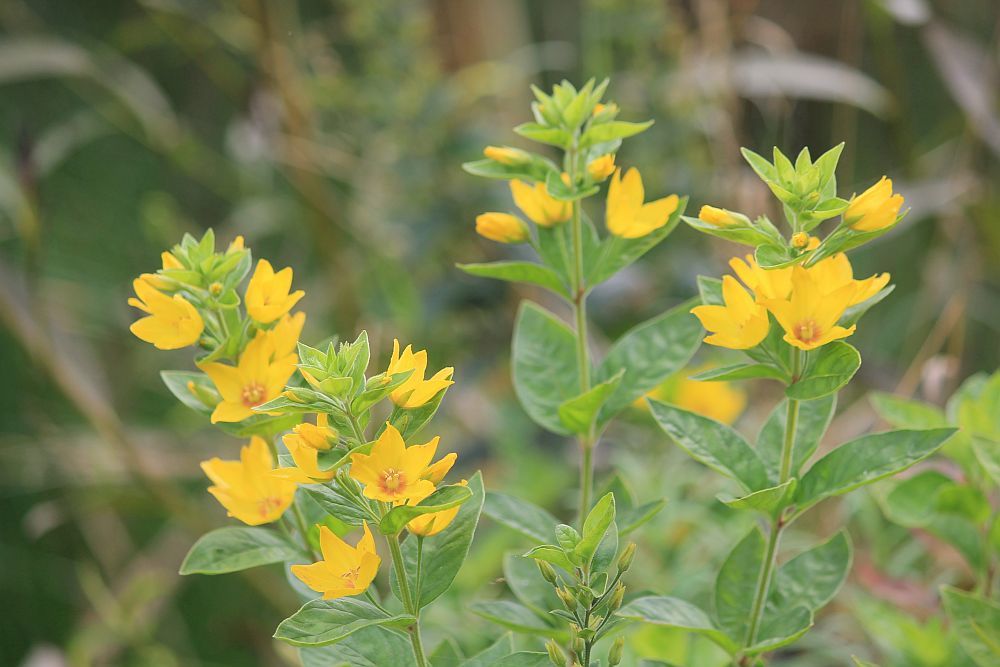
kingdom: Plantae
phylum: Tracheophyta
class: Magnoliopsida
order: Ericales
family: Primulaceae
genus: Lysimachia
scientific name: Lysimachia punctata
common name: Dotted loosestrife
